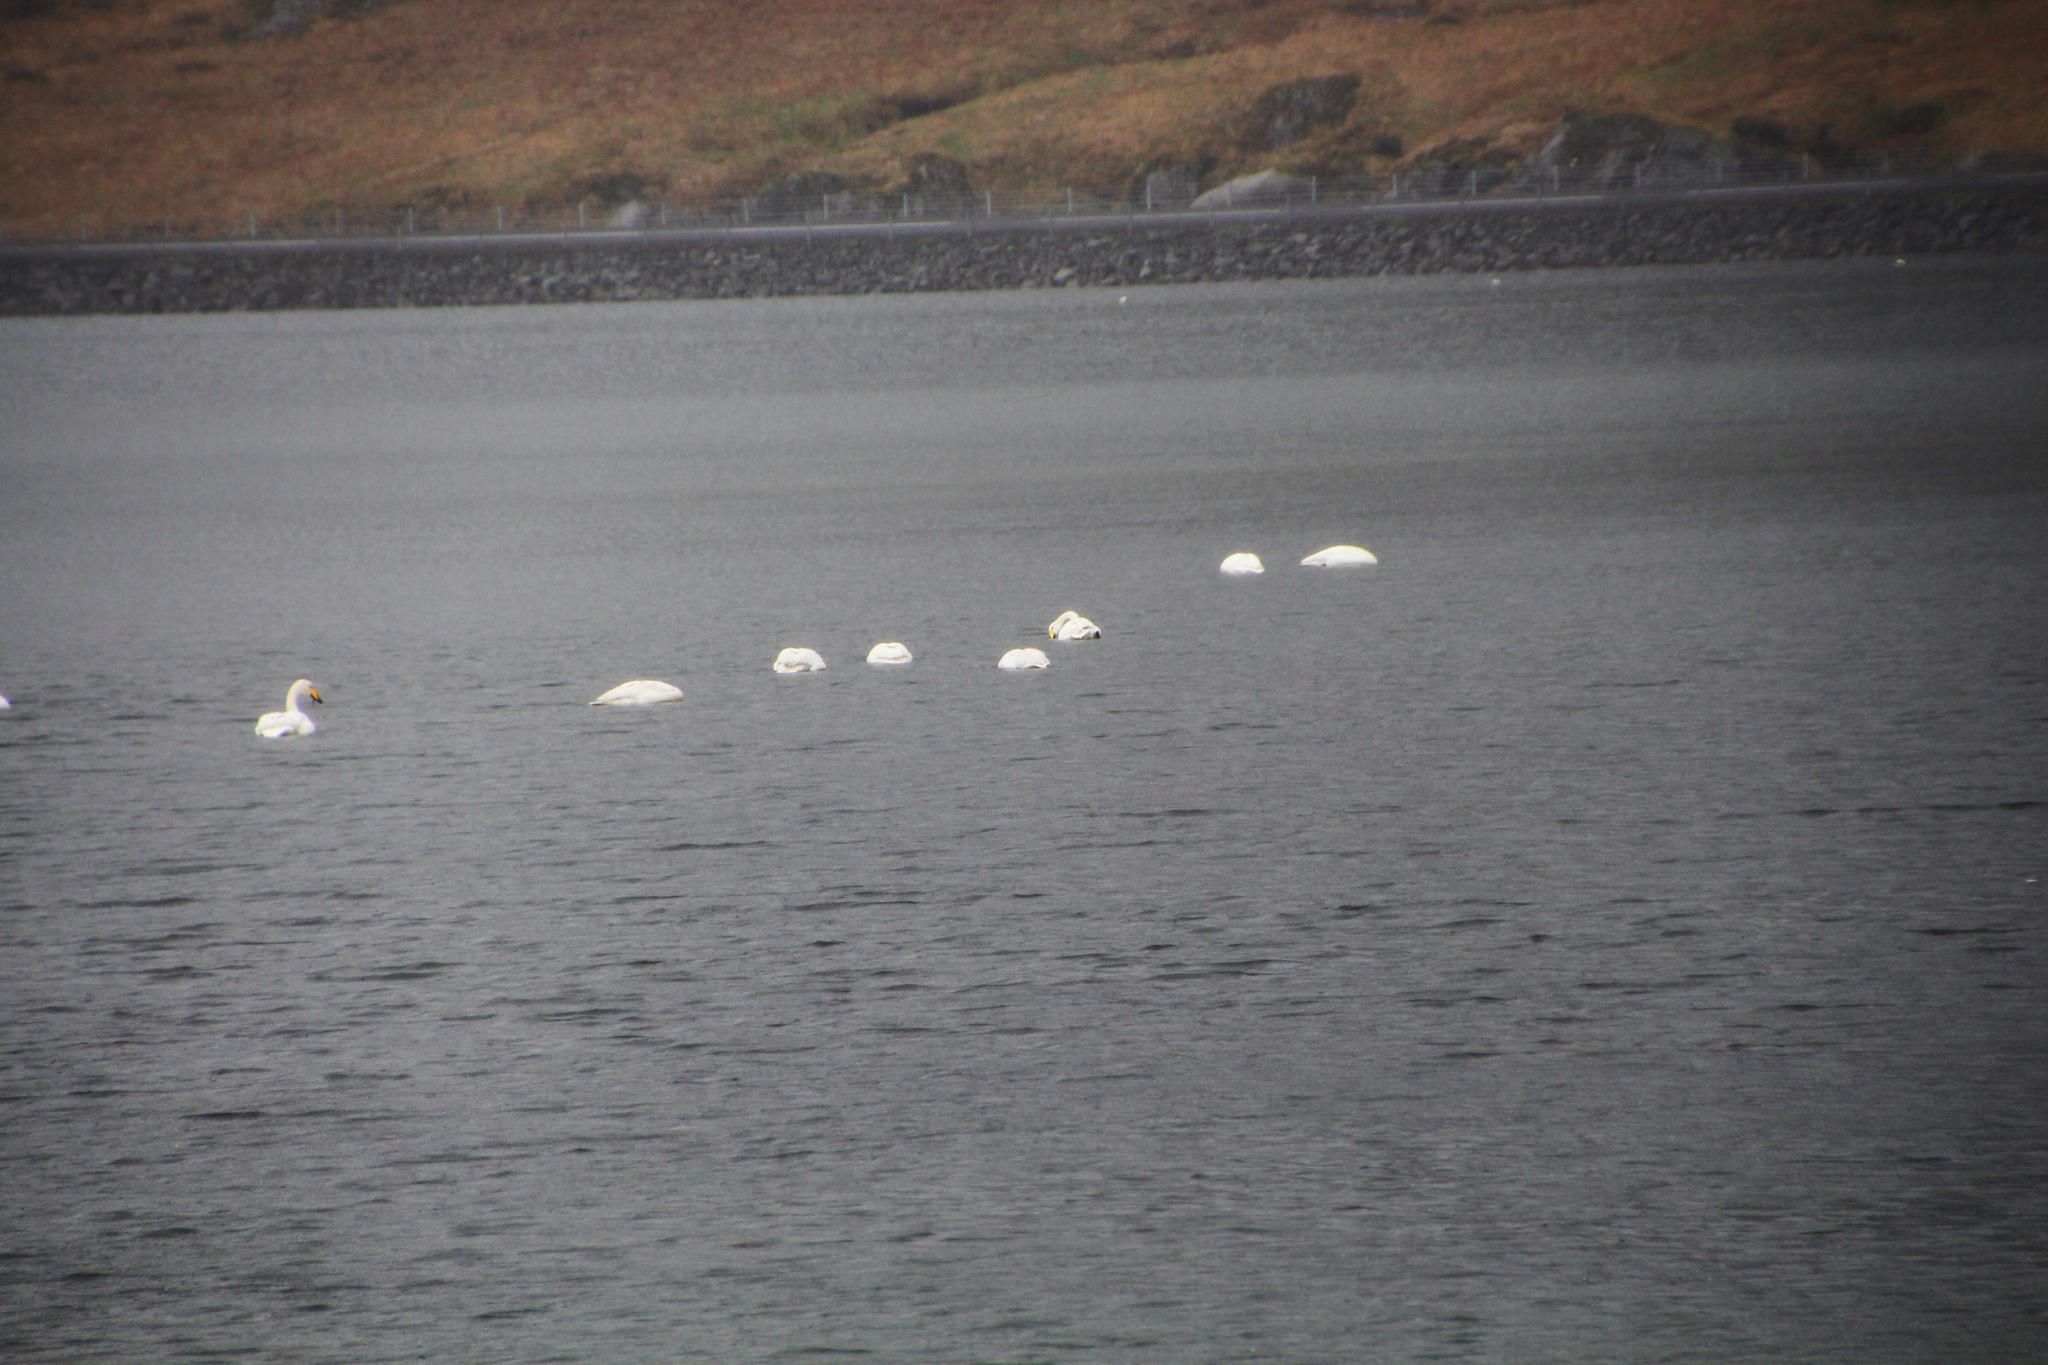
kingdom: Animalia
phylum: Chordata
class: Aves
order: Anseriformes
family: Anatidae
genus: Cygnus
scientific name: Cygnus cygnus
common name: Whooper swan
